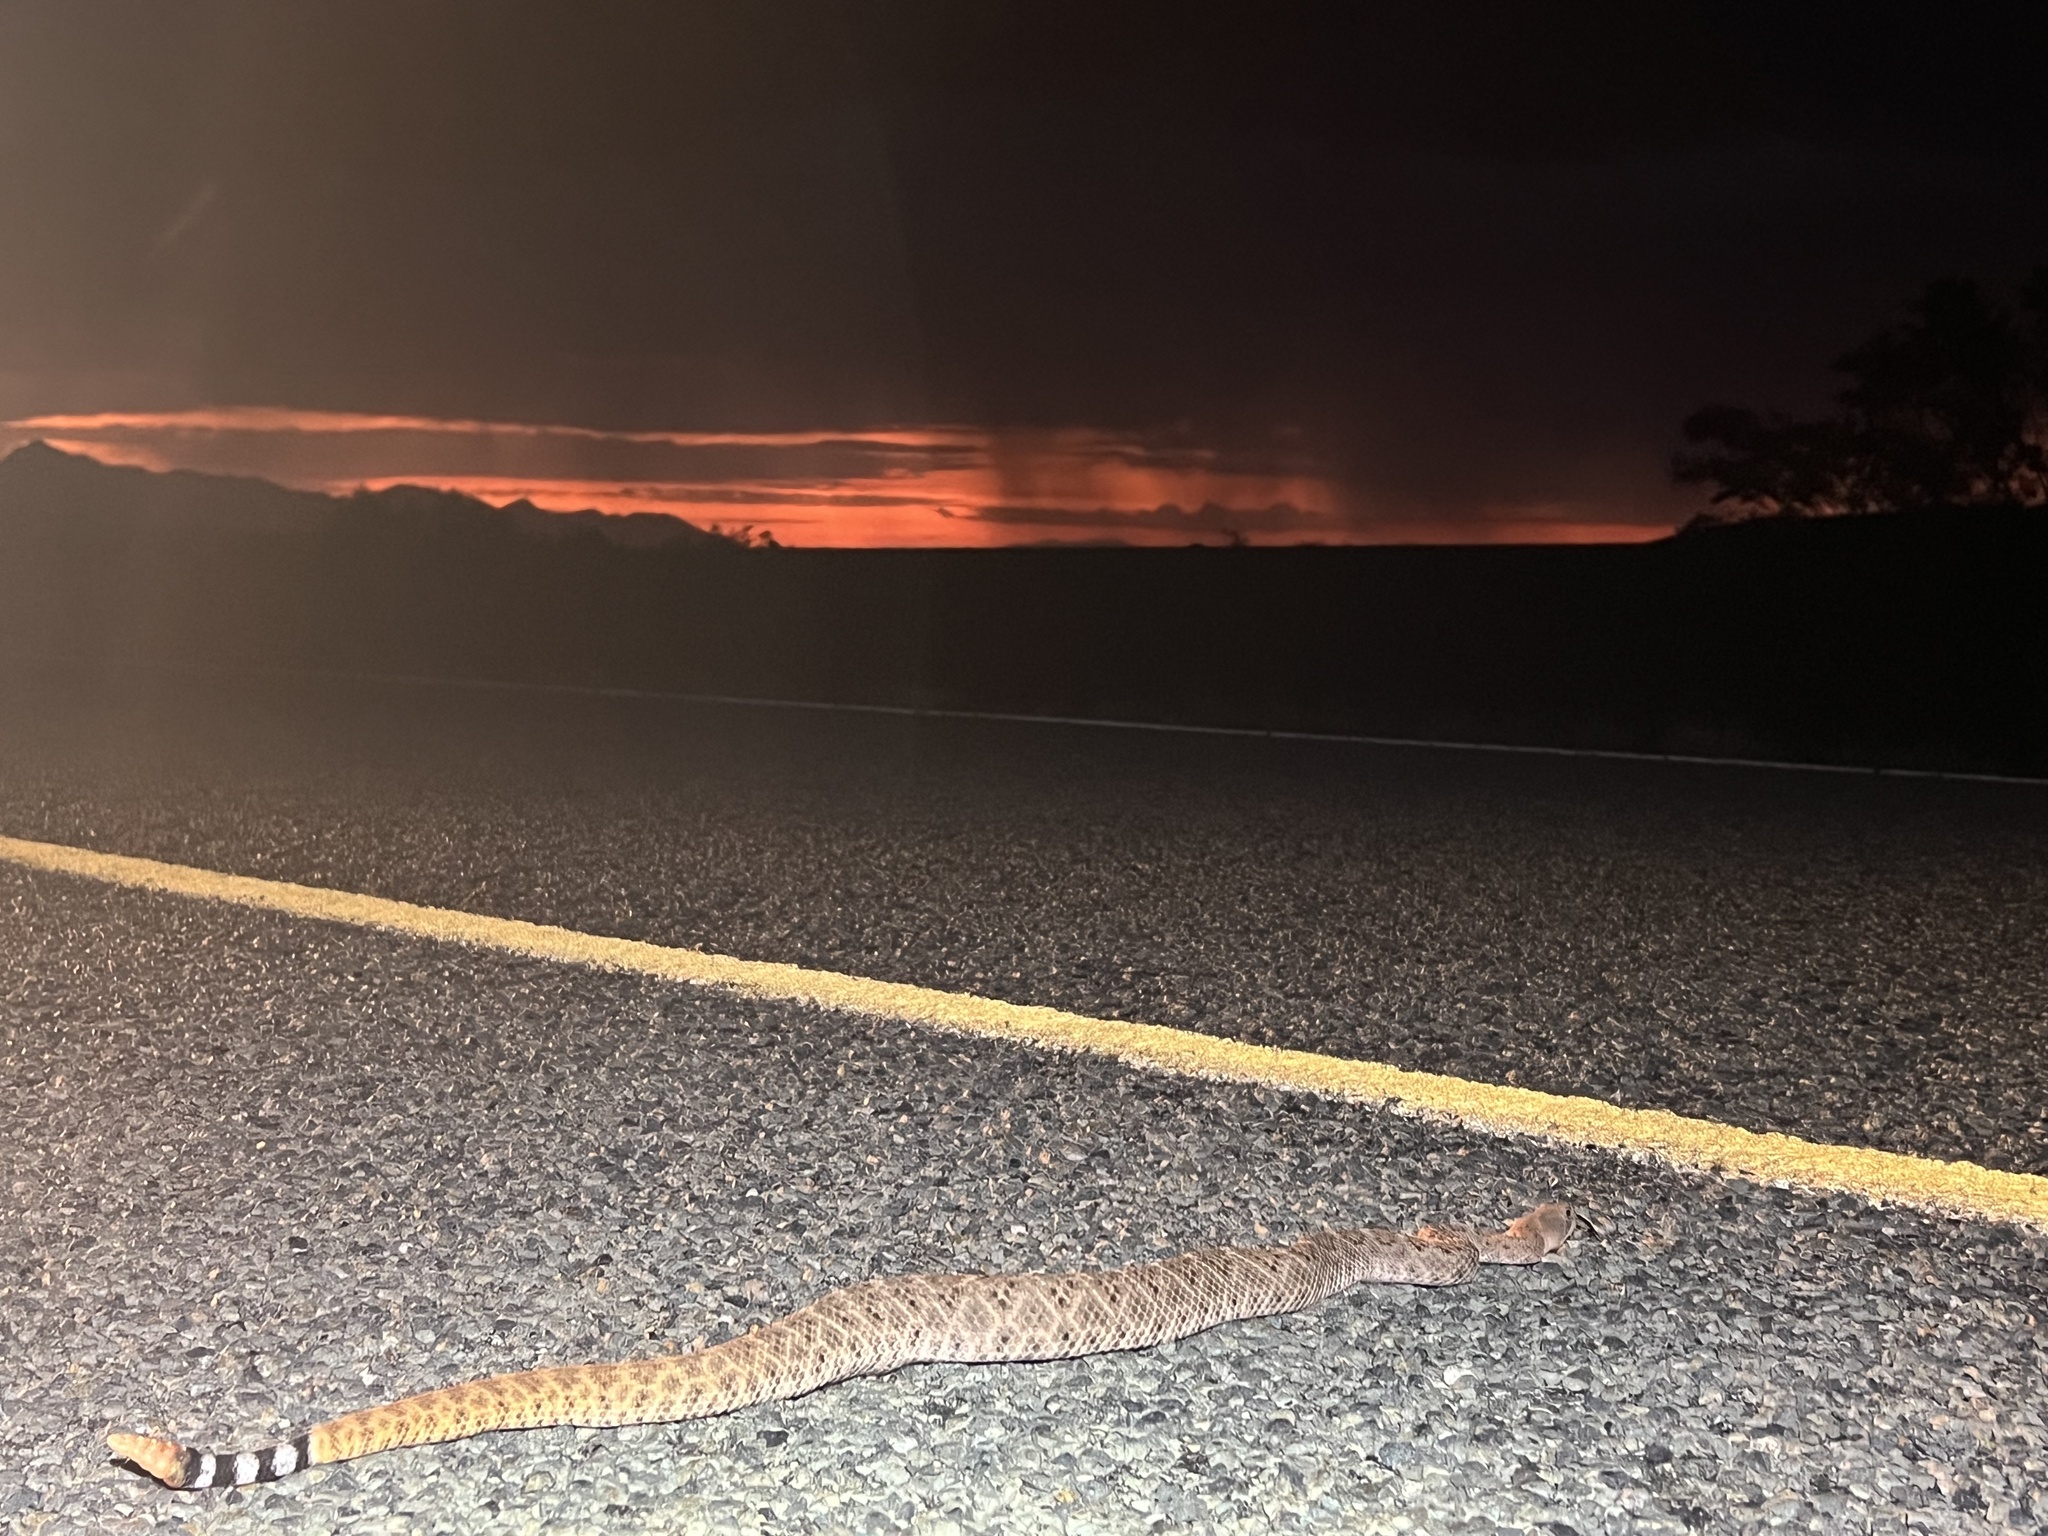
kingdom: Animalia
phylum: Chordata
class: Squamata
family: Viperidae
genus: Crotalus
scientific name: Crotalus atrox
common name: Western diamond-backed rattlesnake
